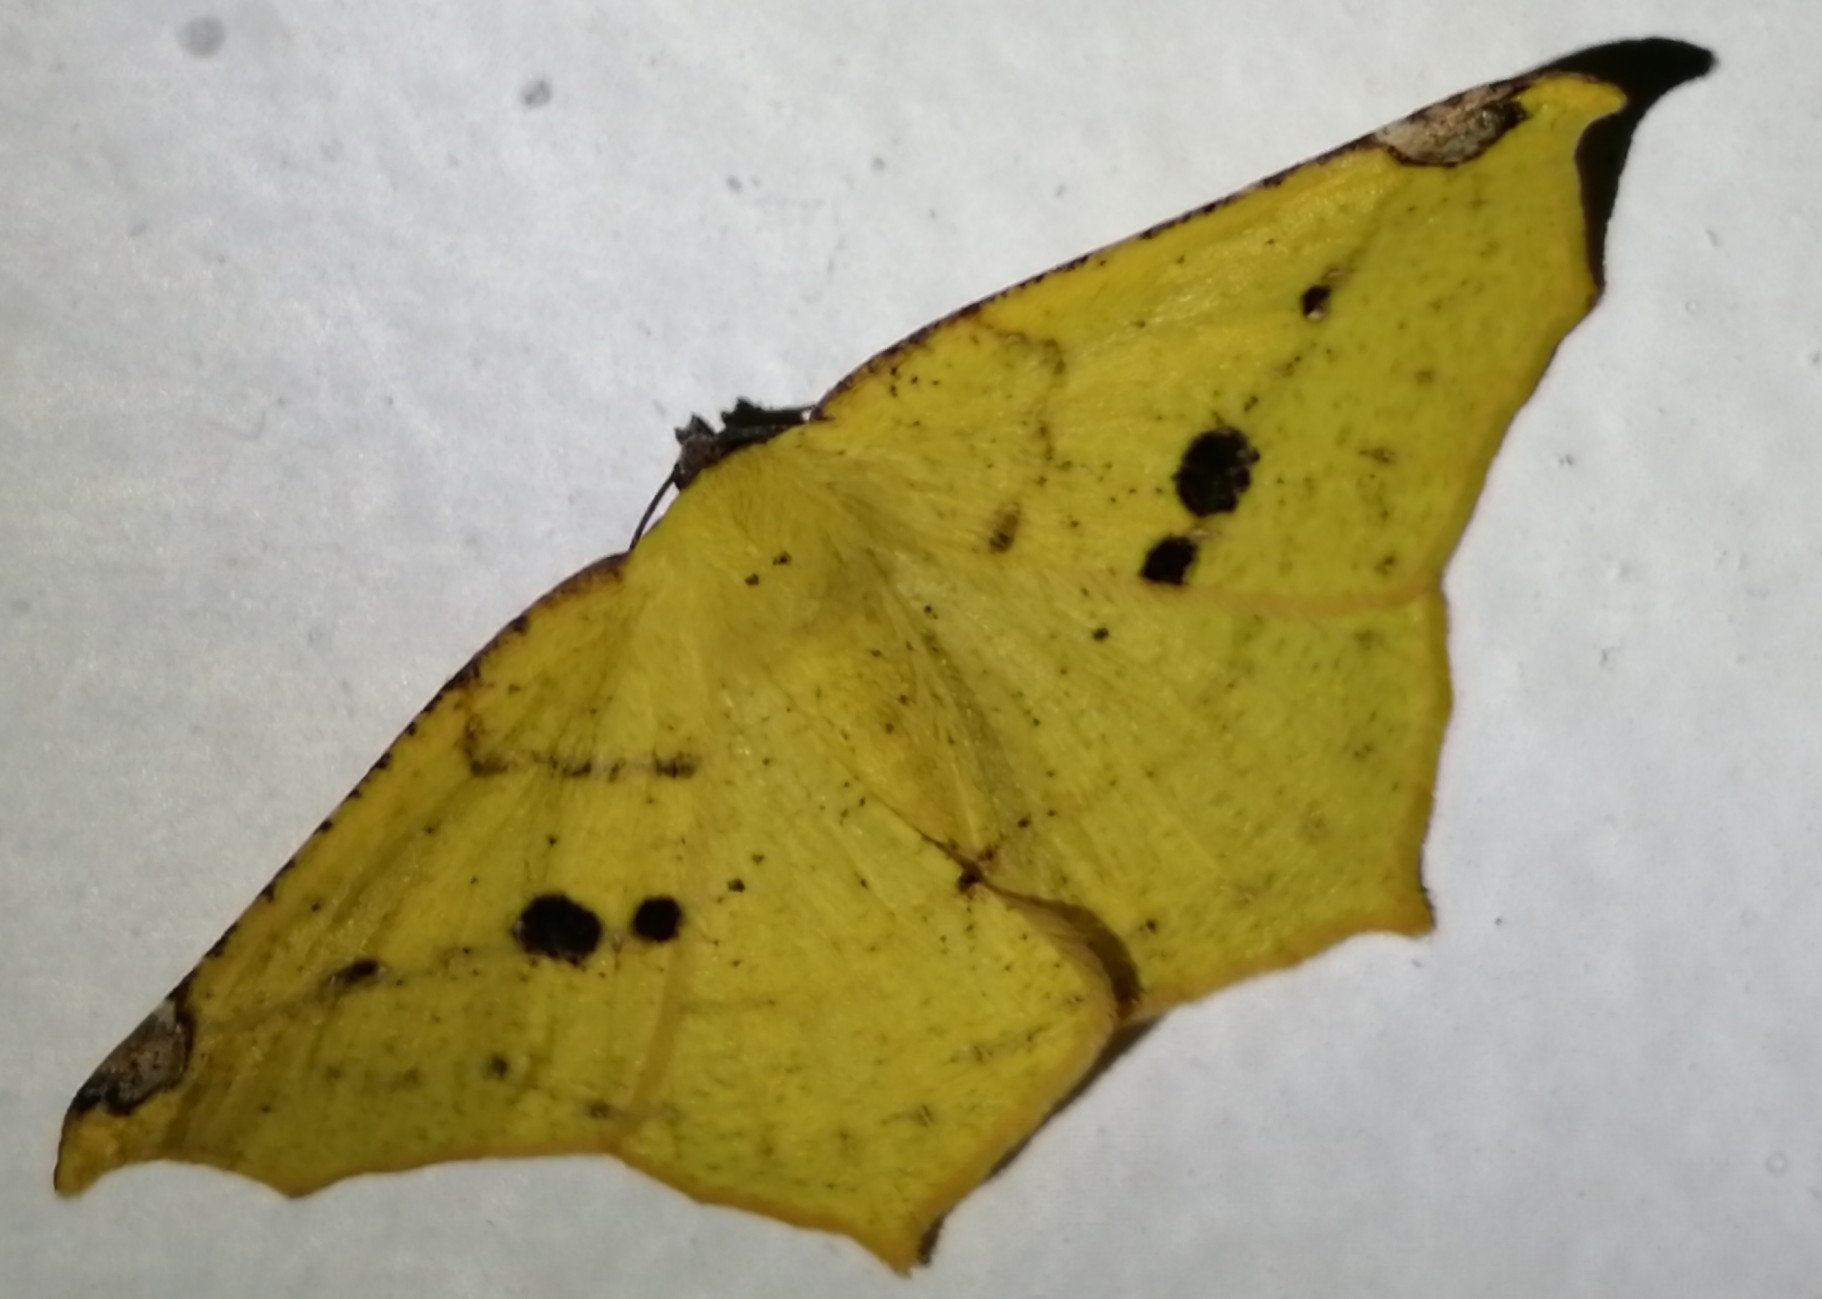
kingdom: Animalia
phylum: Arthropoda
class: Insecta
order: Lepidoptera
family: Geometridae
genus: Antepione
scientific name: Antepione thisoaria
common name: Variable antipione
